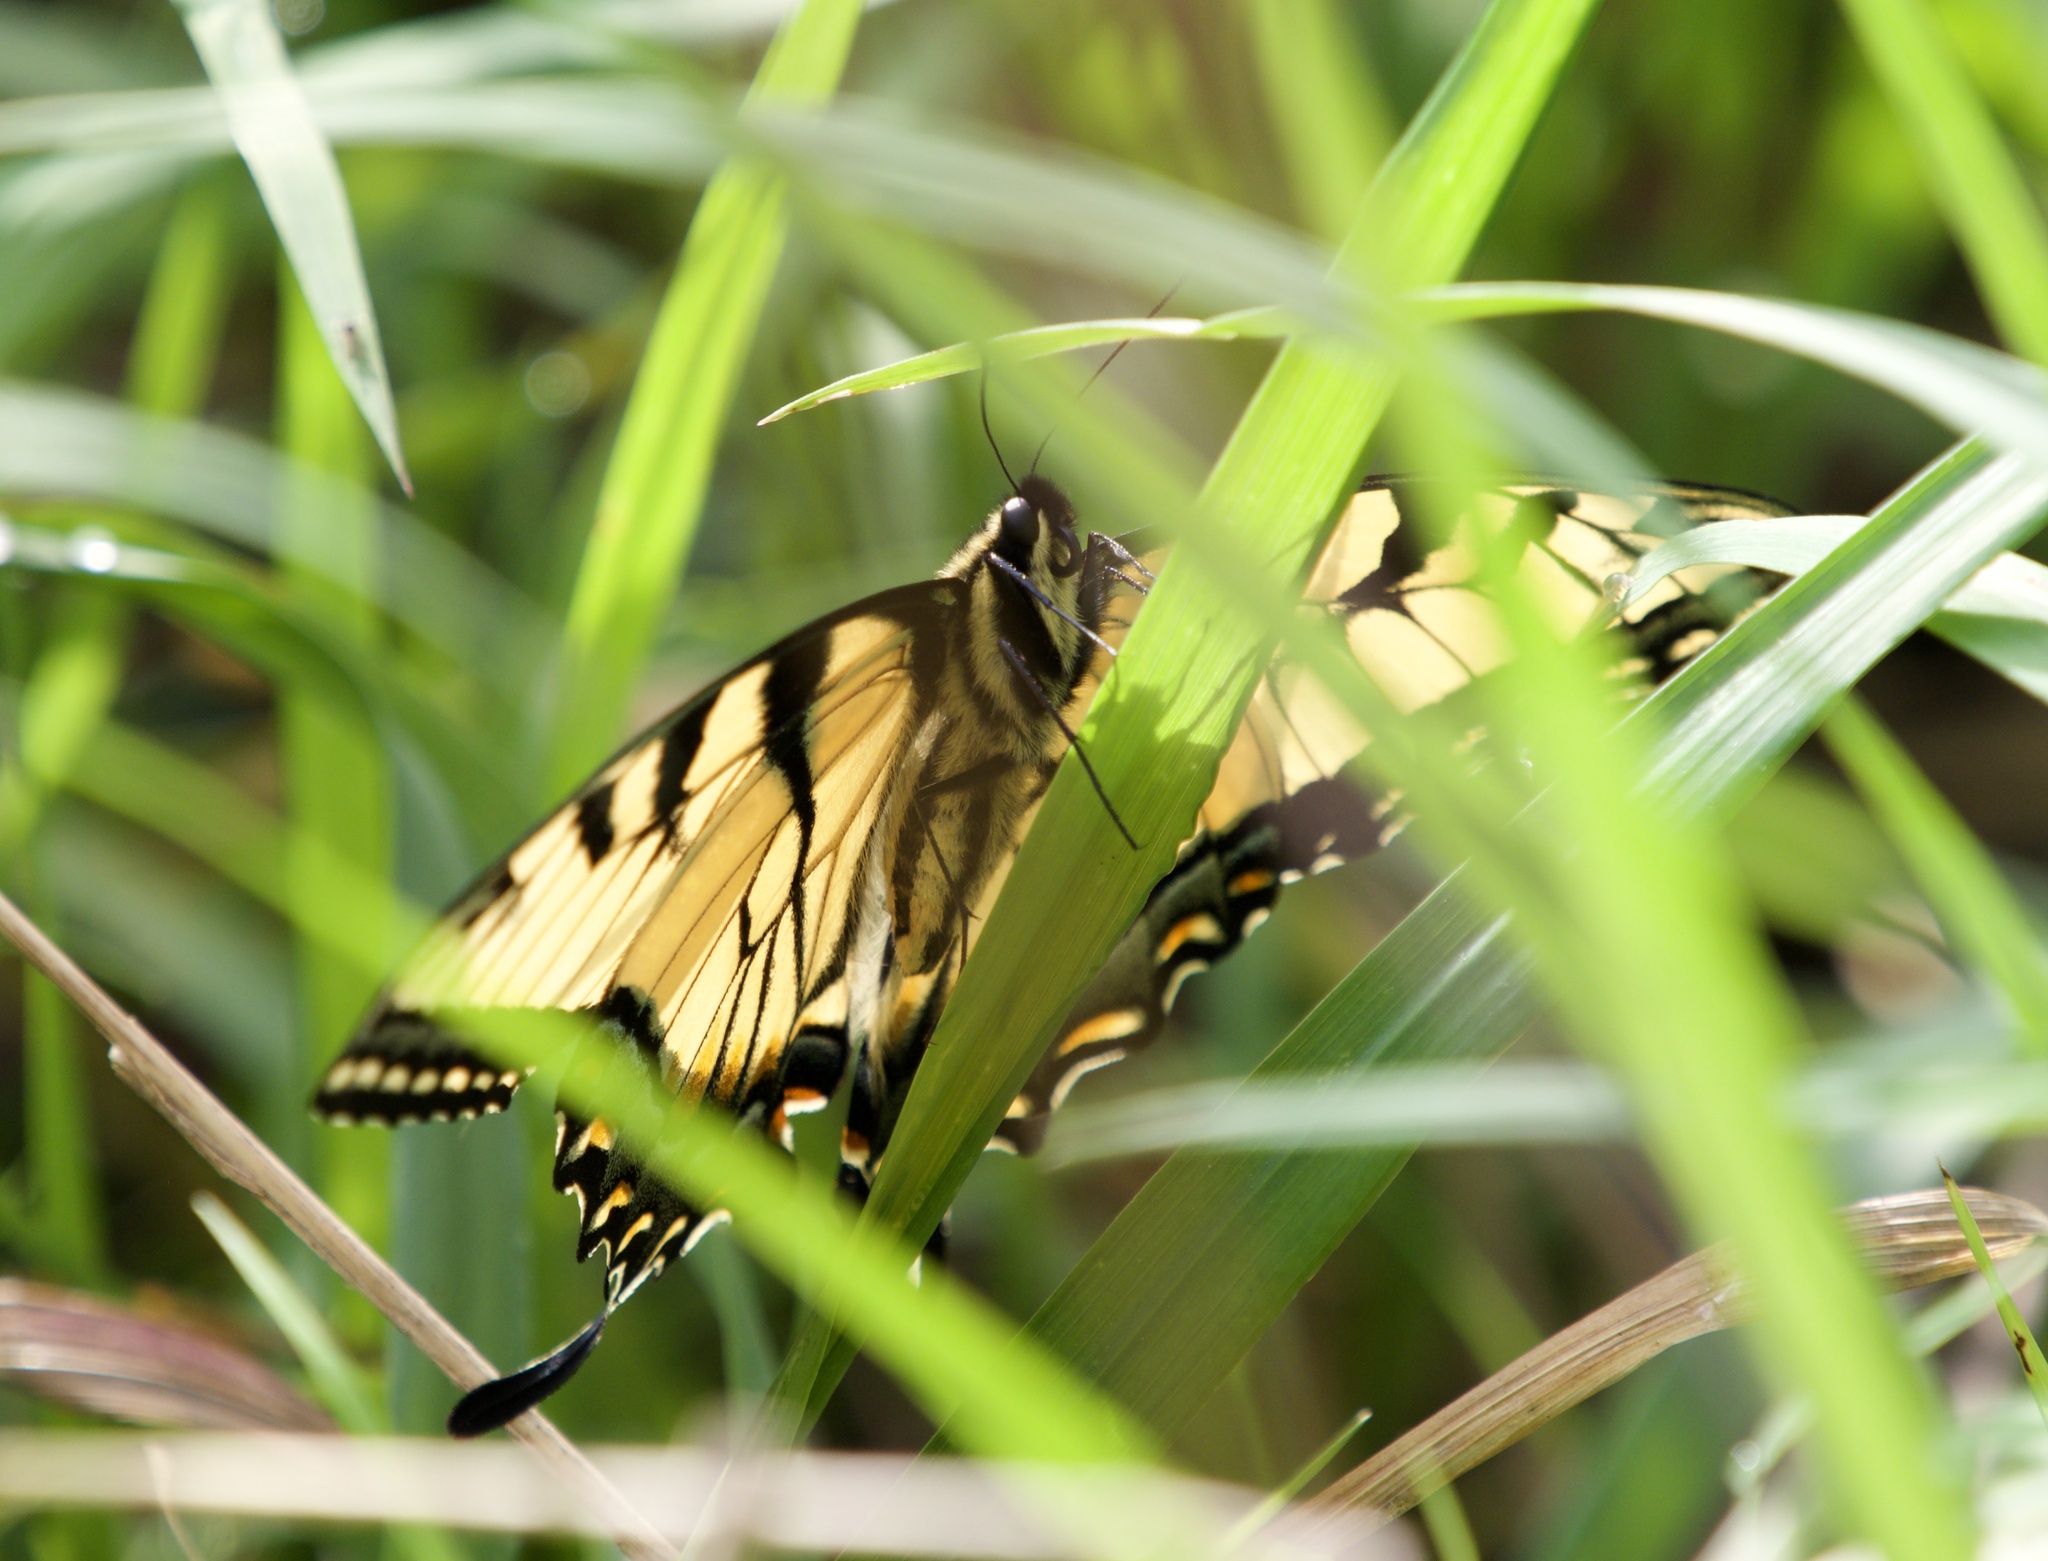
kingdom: Animalia
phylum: Arthropoda
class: Insecta
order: Lepidoptera
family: Papilionidae
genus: Papilio
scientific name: Papilio glaucus
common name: Tiger swallowtail
